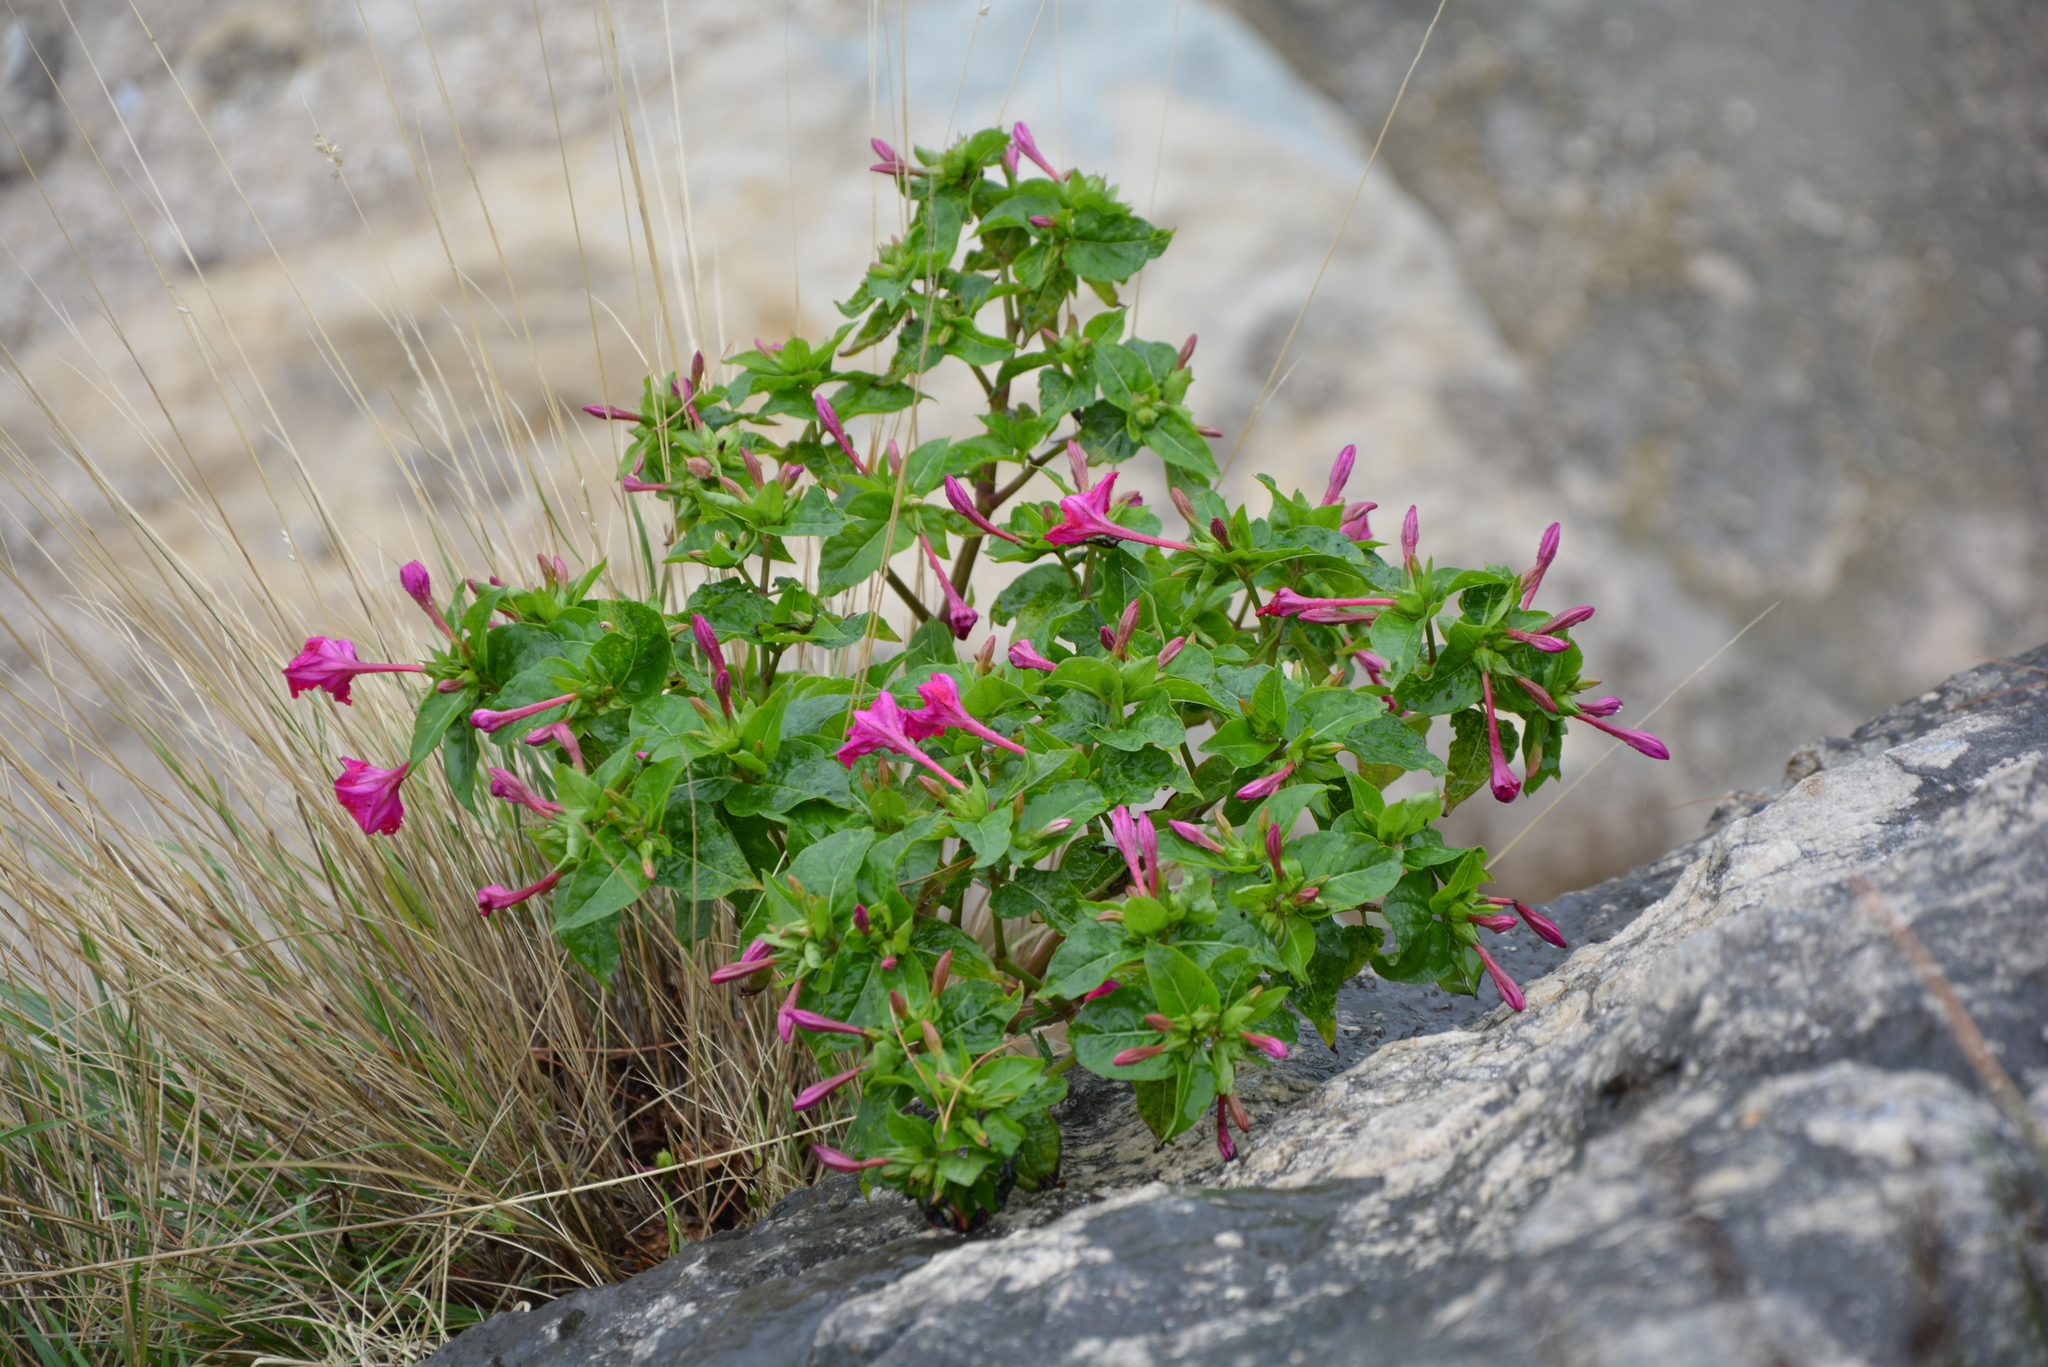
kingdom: Plantae
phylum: Tracheophyta
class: Magnoliopsida
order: Caryophyllales
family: Nyctaginaceae
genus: Mirabilis
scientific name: Mirabilis jalapa
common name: Marvel-of-peru
